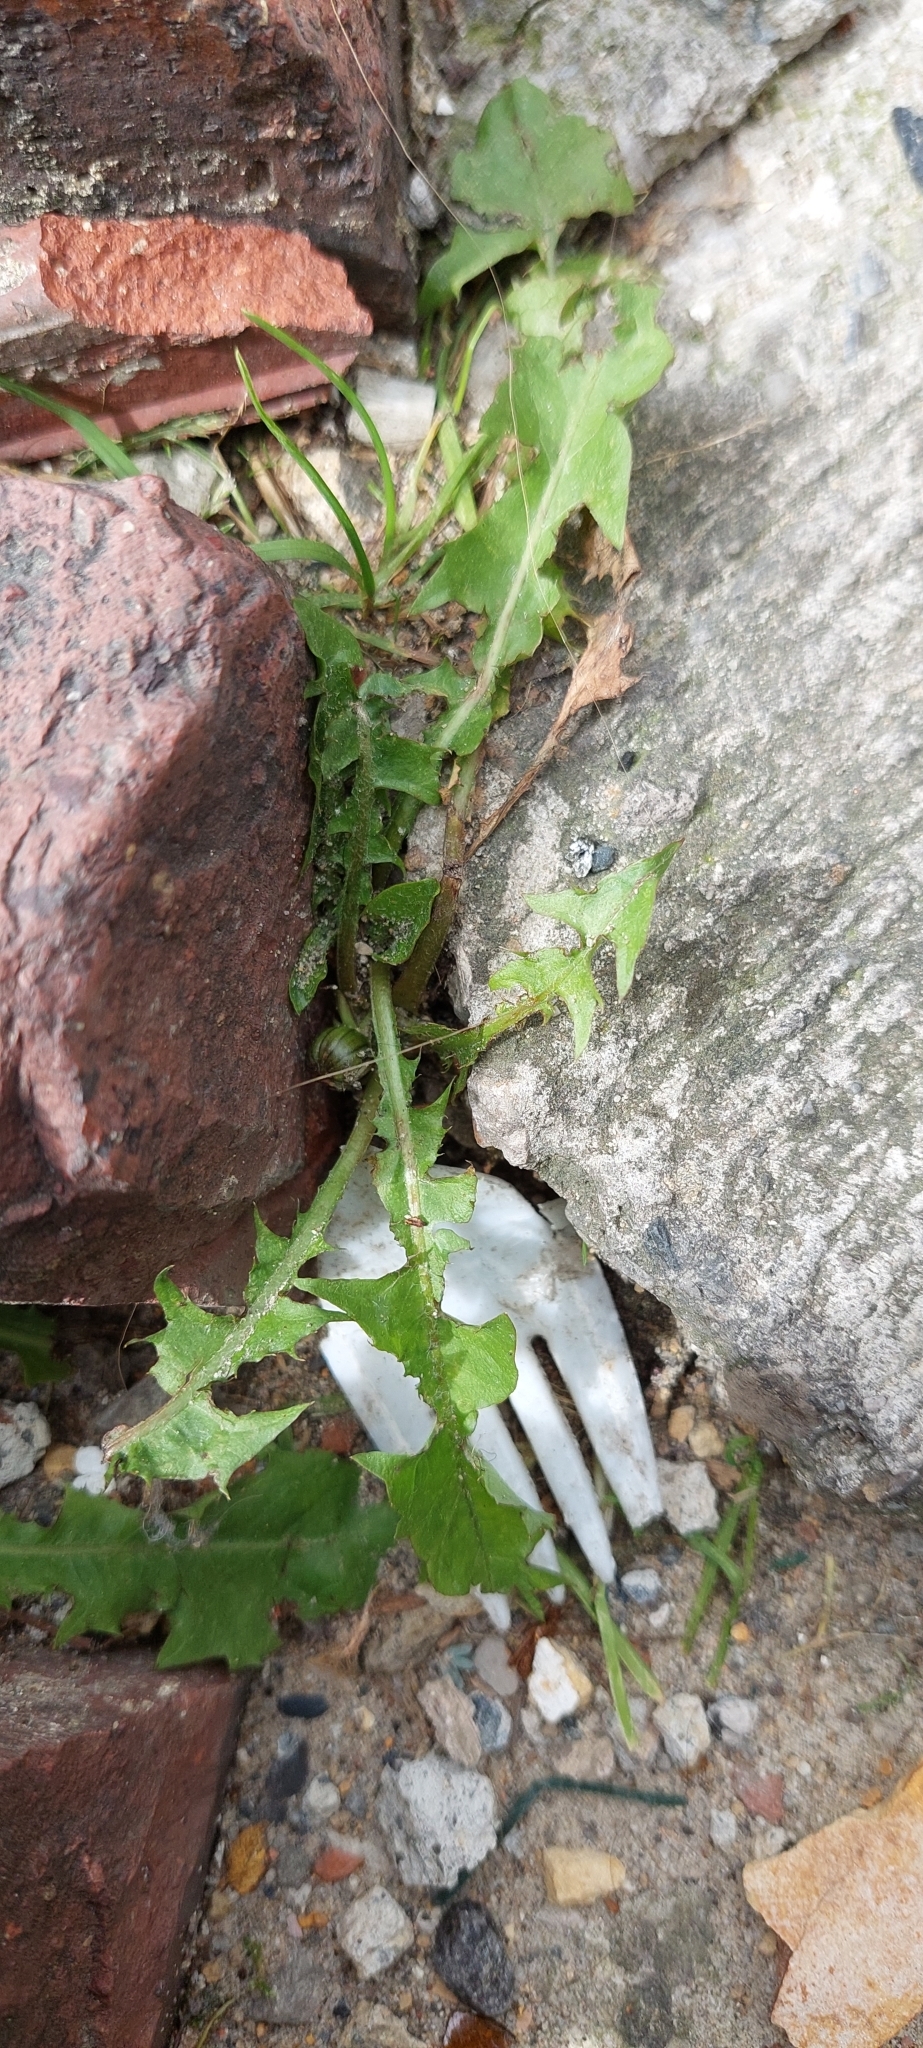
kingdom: Plantae
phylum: Tracheophyta
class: Magnoliopsida
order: Asterales
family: Asteraceae
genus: Taraxacum
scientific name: Taraxacum
